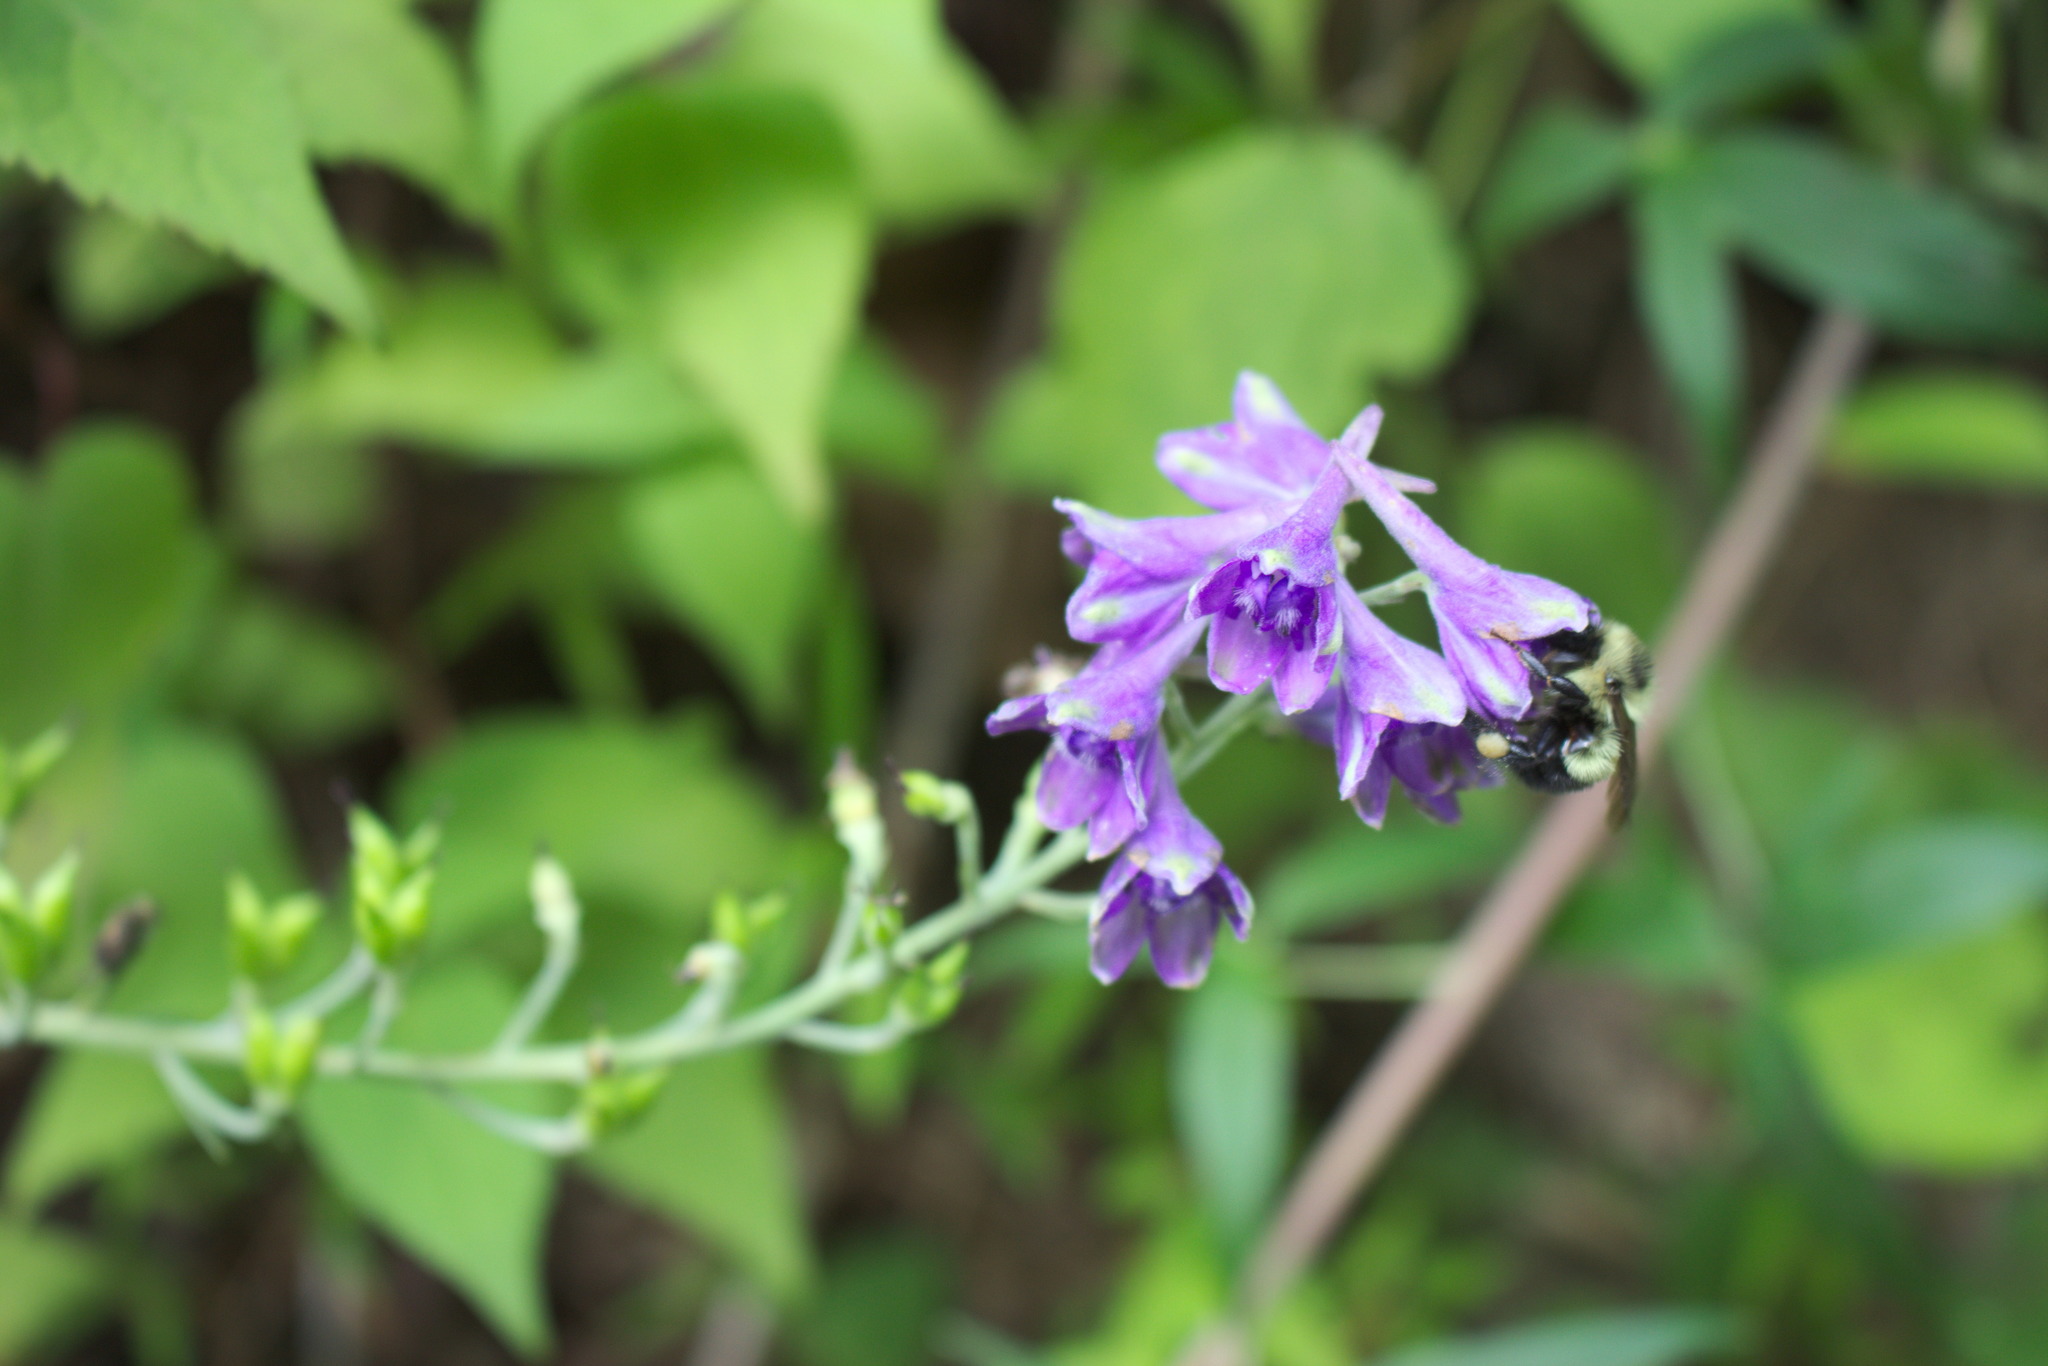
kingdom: Plantae
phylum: Tracheophyta
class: Magnoliopsida
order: Ranunculales
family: Ranunculaceae
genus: Delphinium
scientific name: Delphinium exaltatum
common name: Tall larkspur
